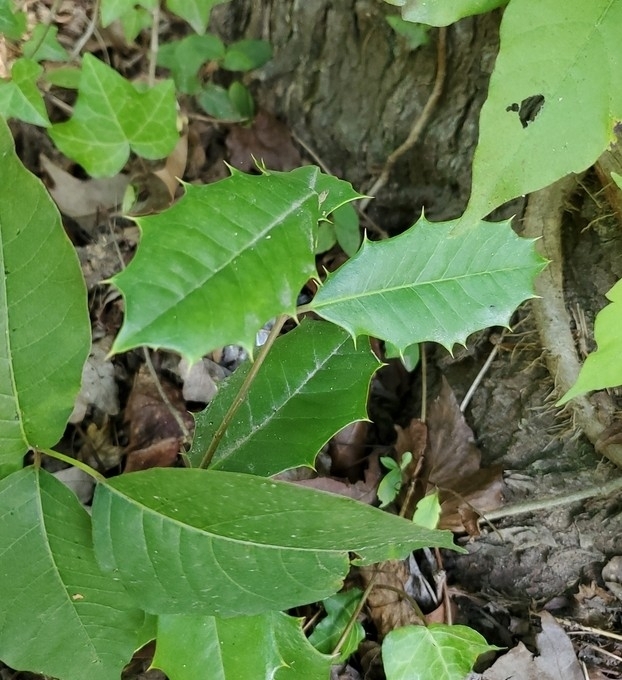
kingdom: Plantae
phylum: Tracheophyta
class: Magnoliopsida
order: Aquifoliales
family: Aquifoliaceae
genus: Ilex
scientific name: Ilex opaca
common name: American holly
